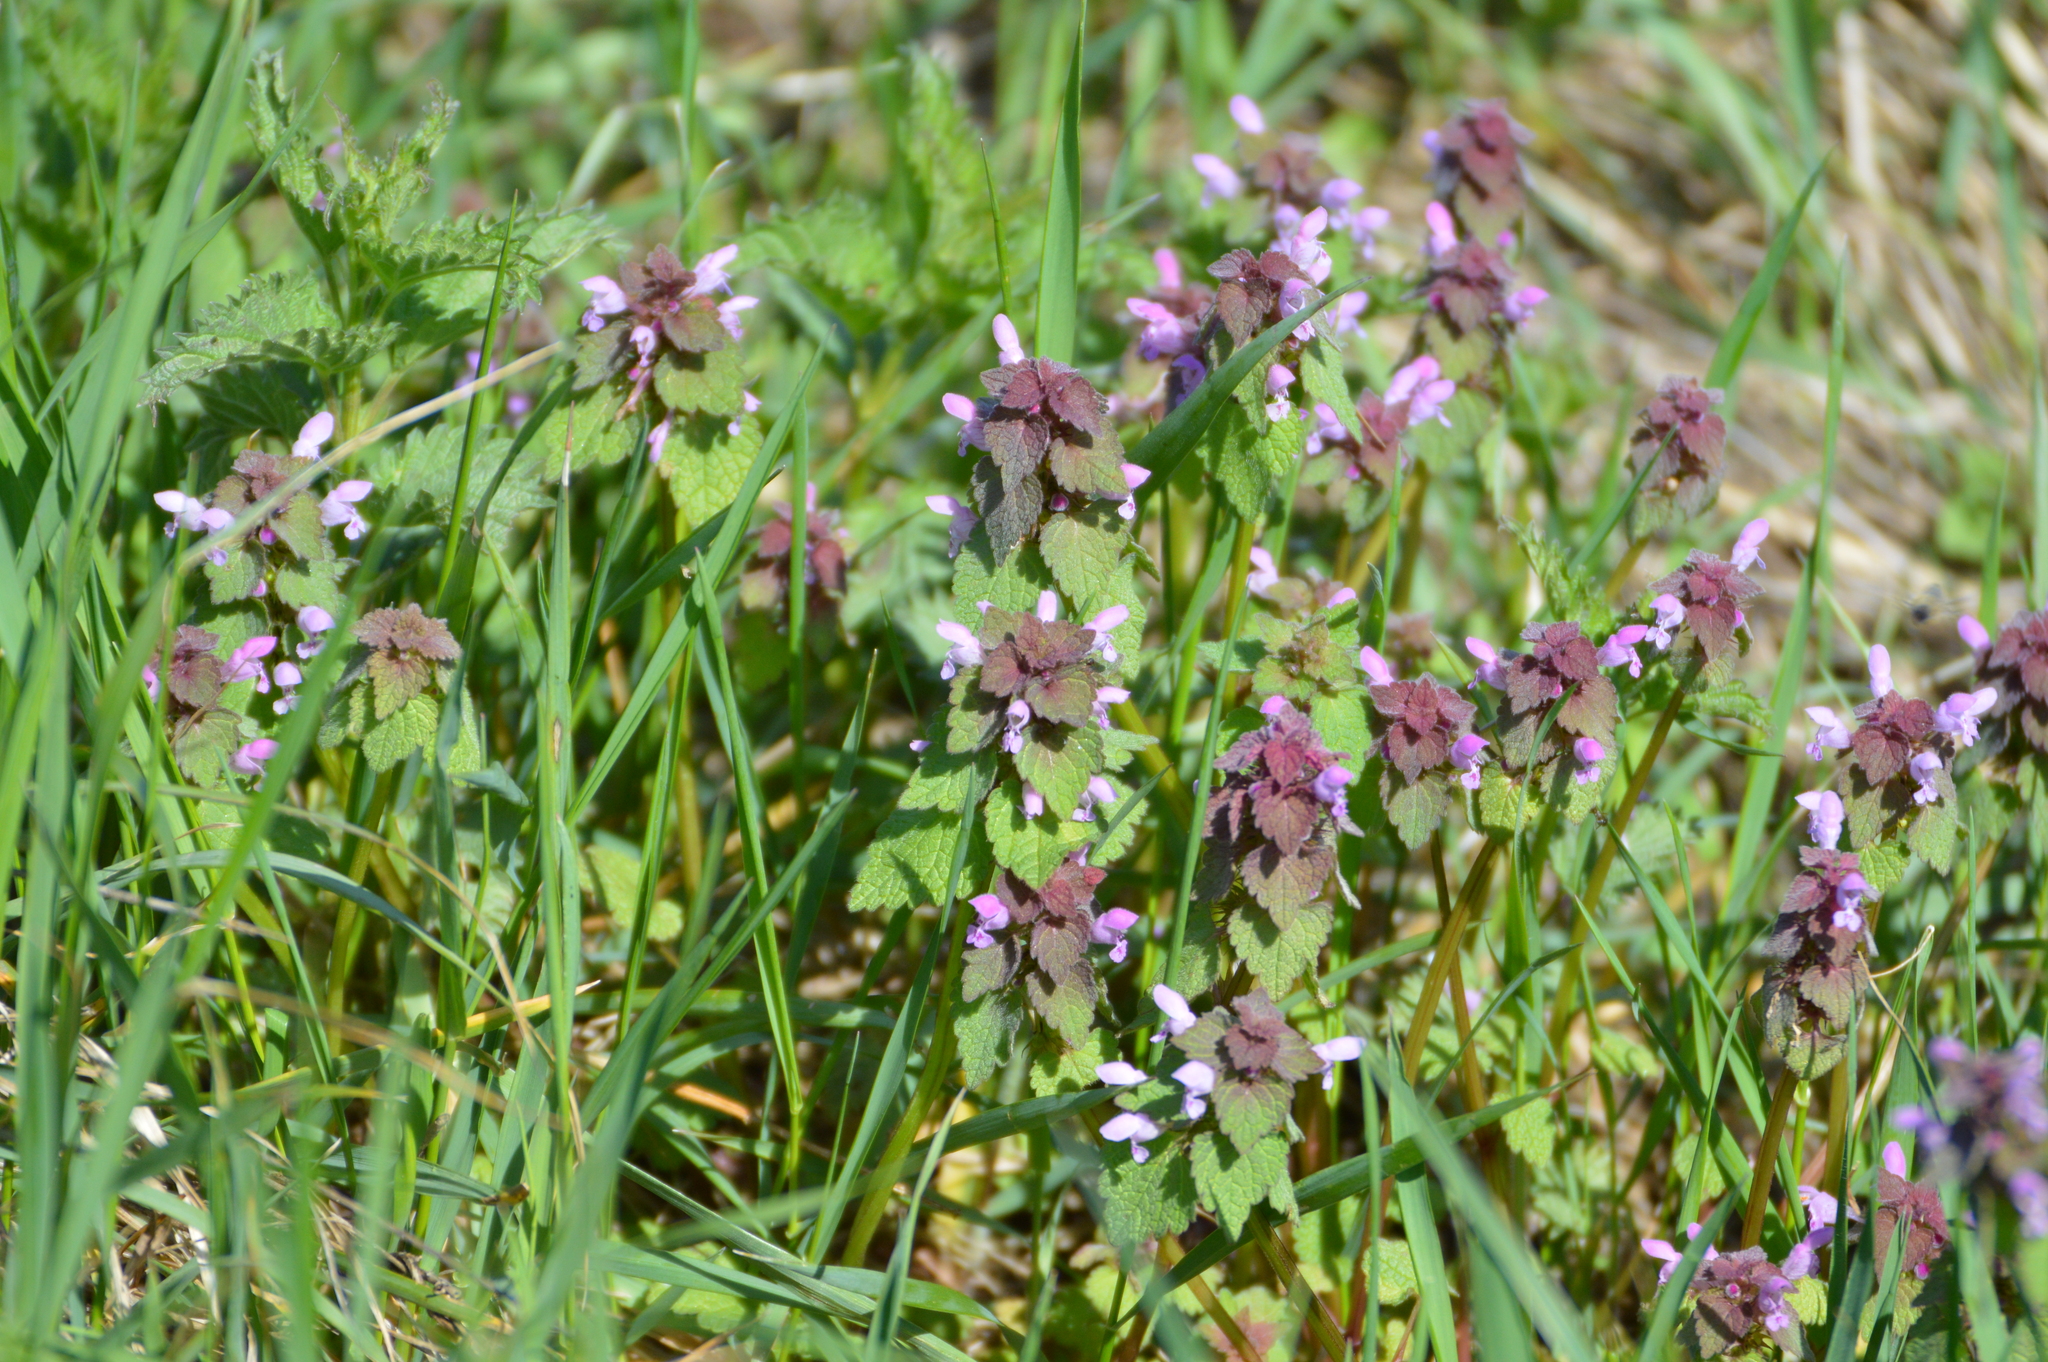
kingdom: Plantae
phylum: Tracheophyta
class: Magnoliopsida
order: Lamiales
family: Lamiaceae
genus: Lamium
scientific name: Lamium purpureum
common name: Red dead-nettle
